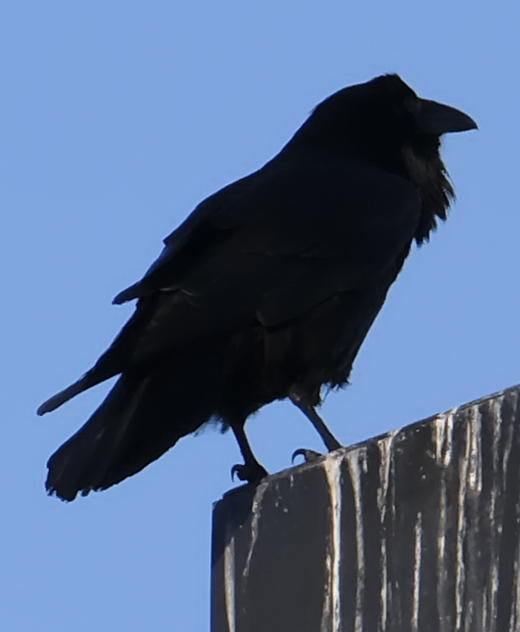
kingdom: Animalia
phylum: Chordata
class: Aves
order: Passeriformes
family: Corvidae
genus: Corvus
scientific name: Corvus corax
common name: Common raven
